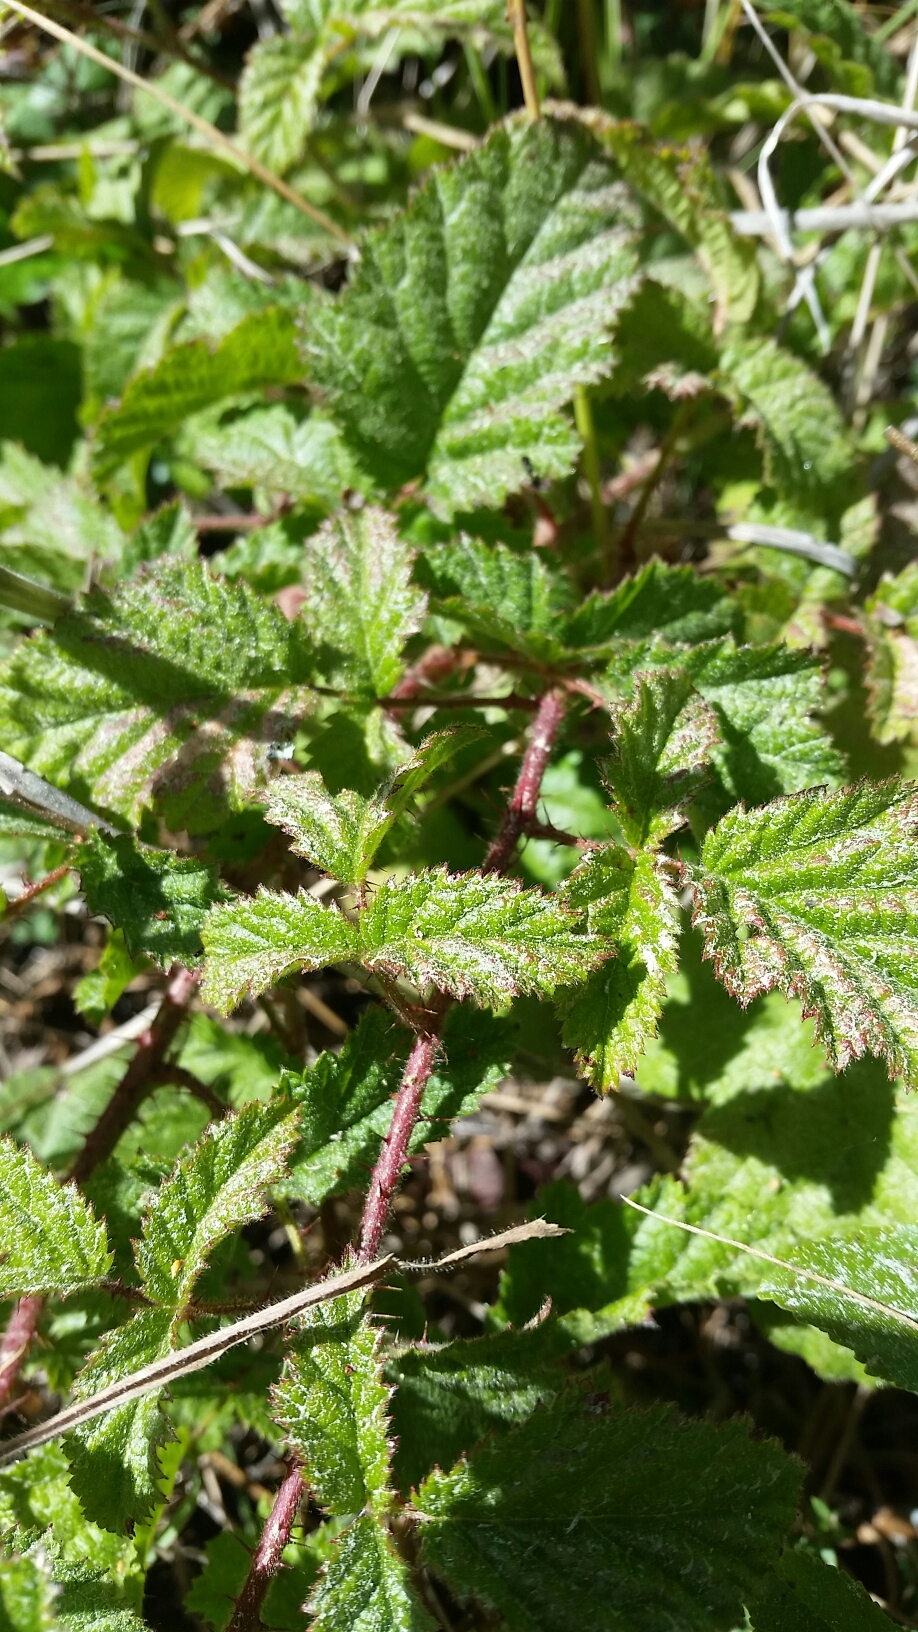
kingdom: Plantae
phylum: Tracheophyta
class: Magnoliopsida
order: Rosales
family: Rosaceae
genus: Rubus
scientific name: Rubus ursinus
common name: Pacific blackberry
